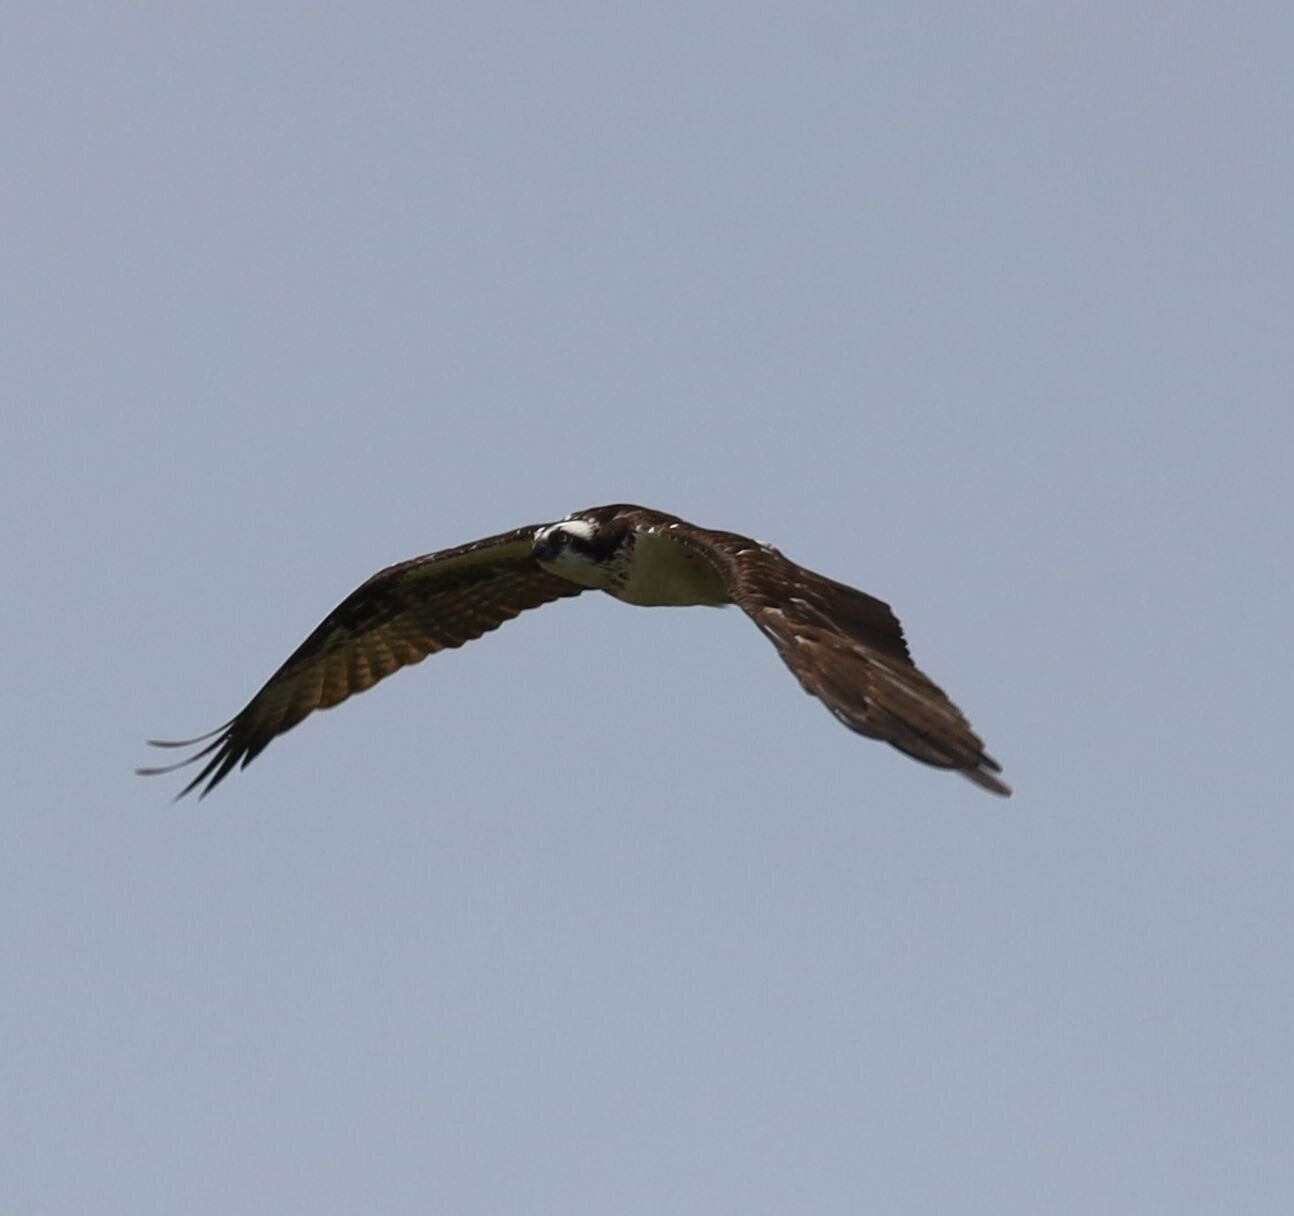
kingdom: Animalia
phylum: Chordata
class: Aves
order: Accipitriformes
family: Pandionidae
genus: Pandion
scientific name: Pandion haliaetus
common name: Osprey
